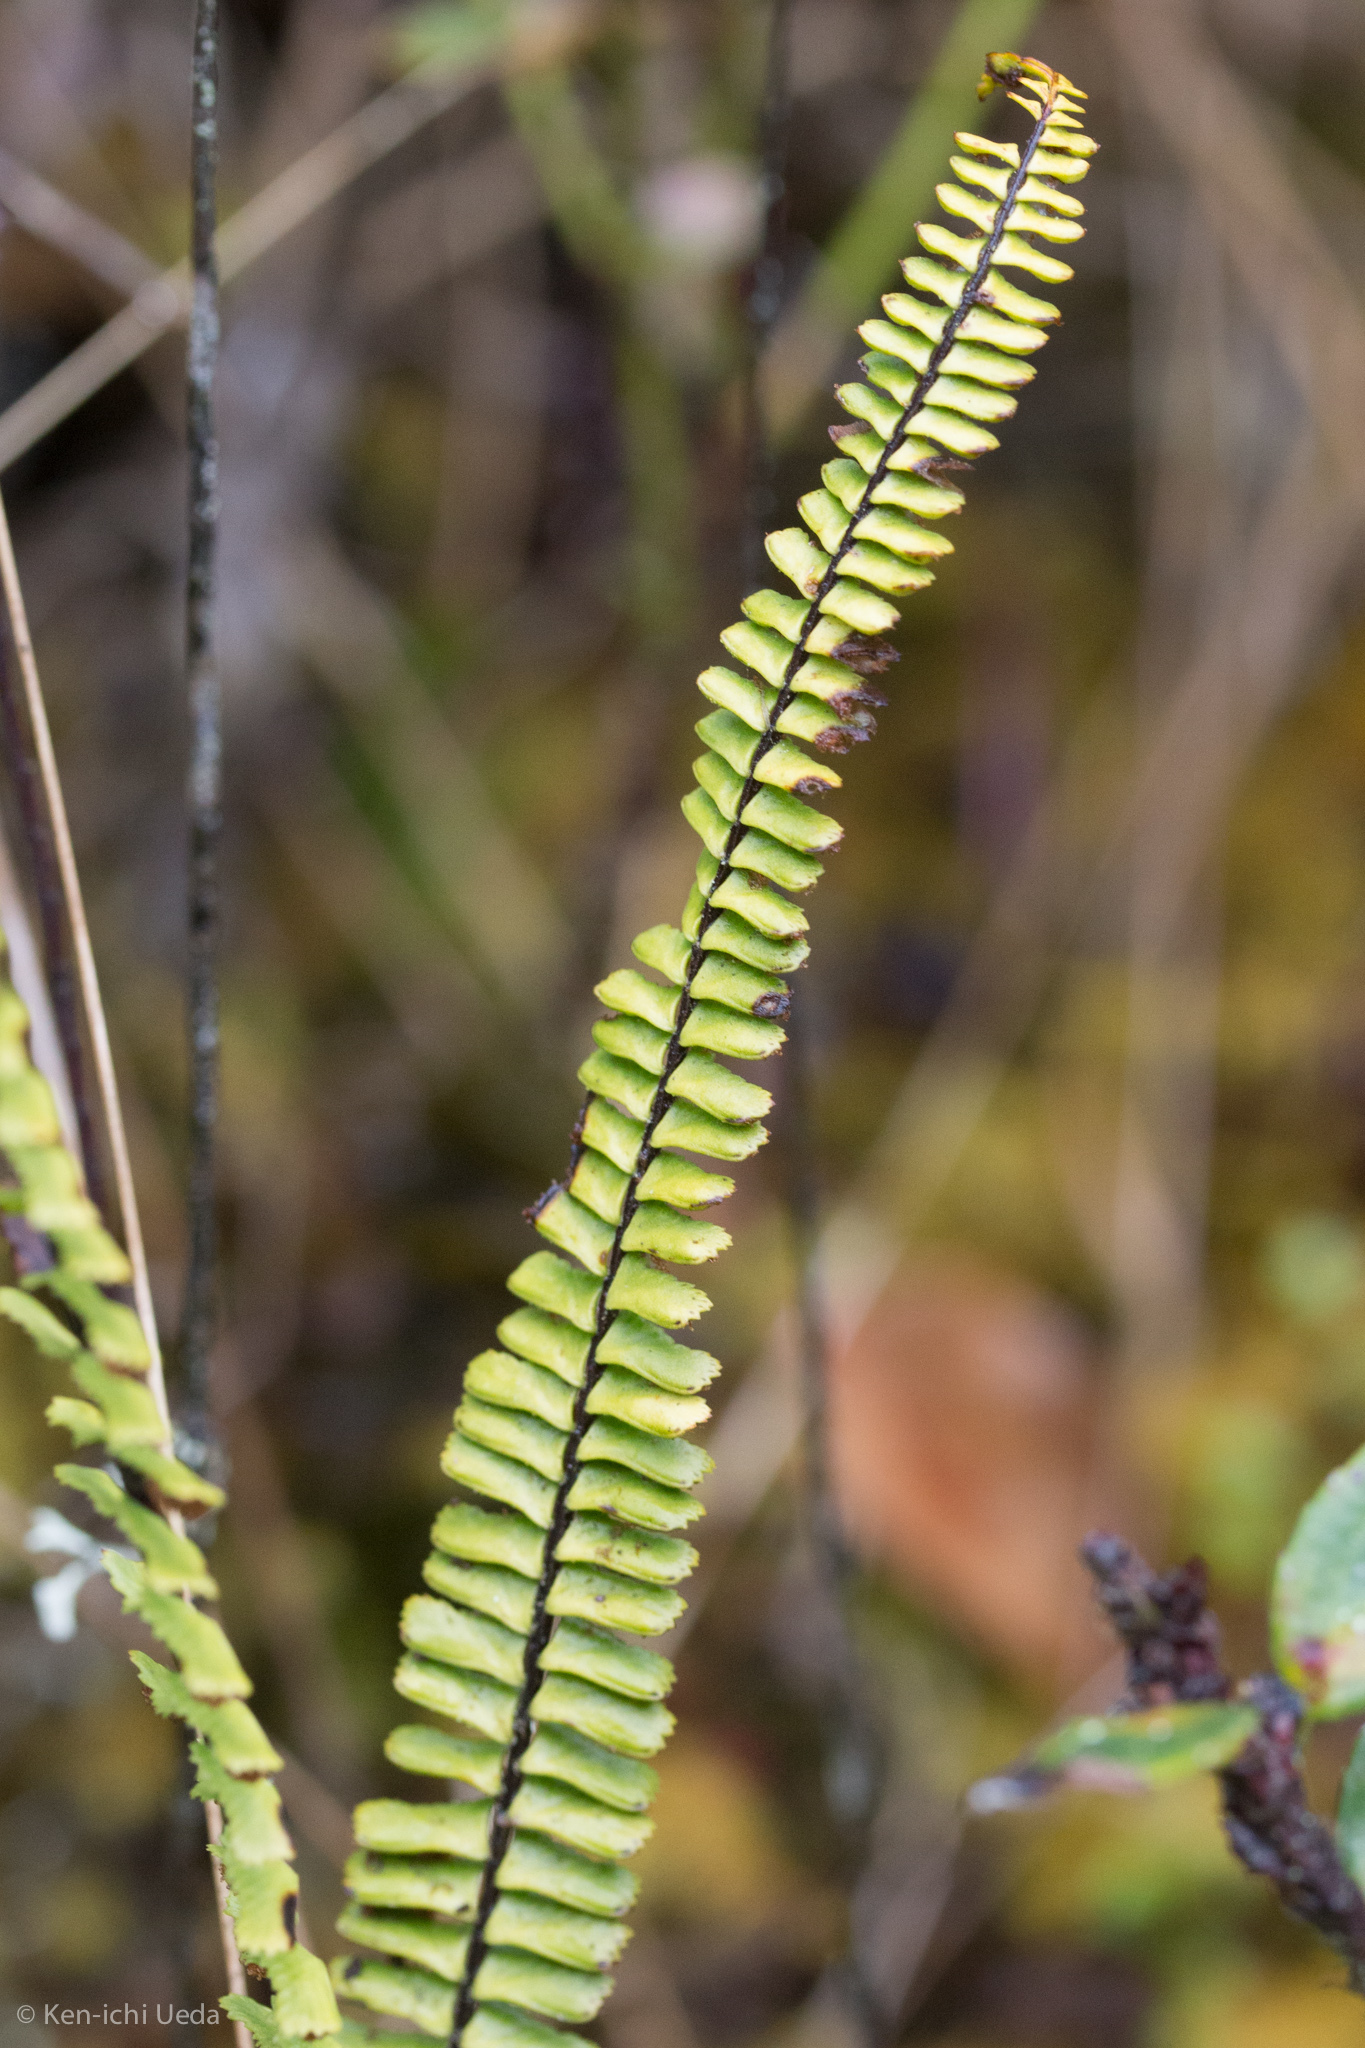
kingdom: Plantae
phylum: Tracheophyta
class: Polypodiopsida
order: Polypodiales
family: Aspleniaceae
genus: Asplenium
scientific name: Asplenium monanthes
